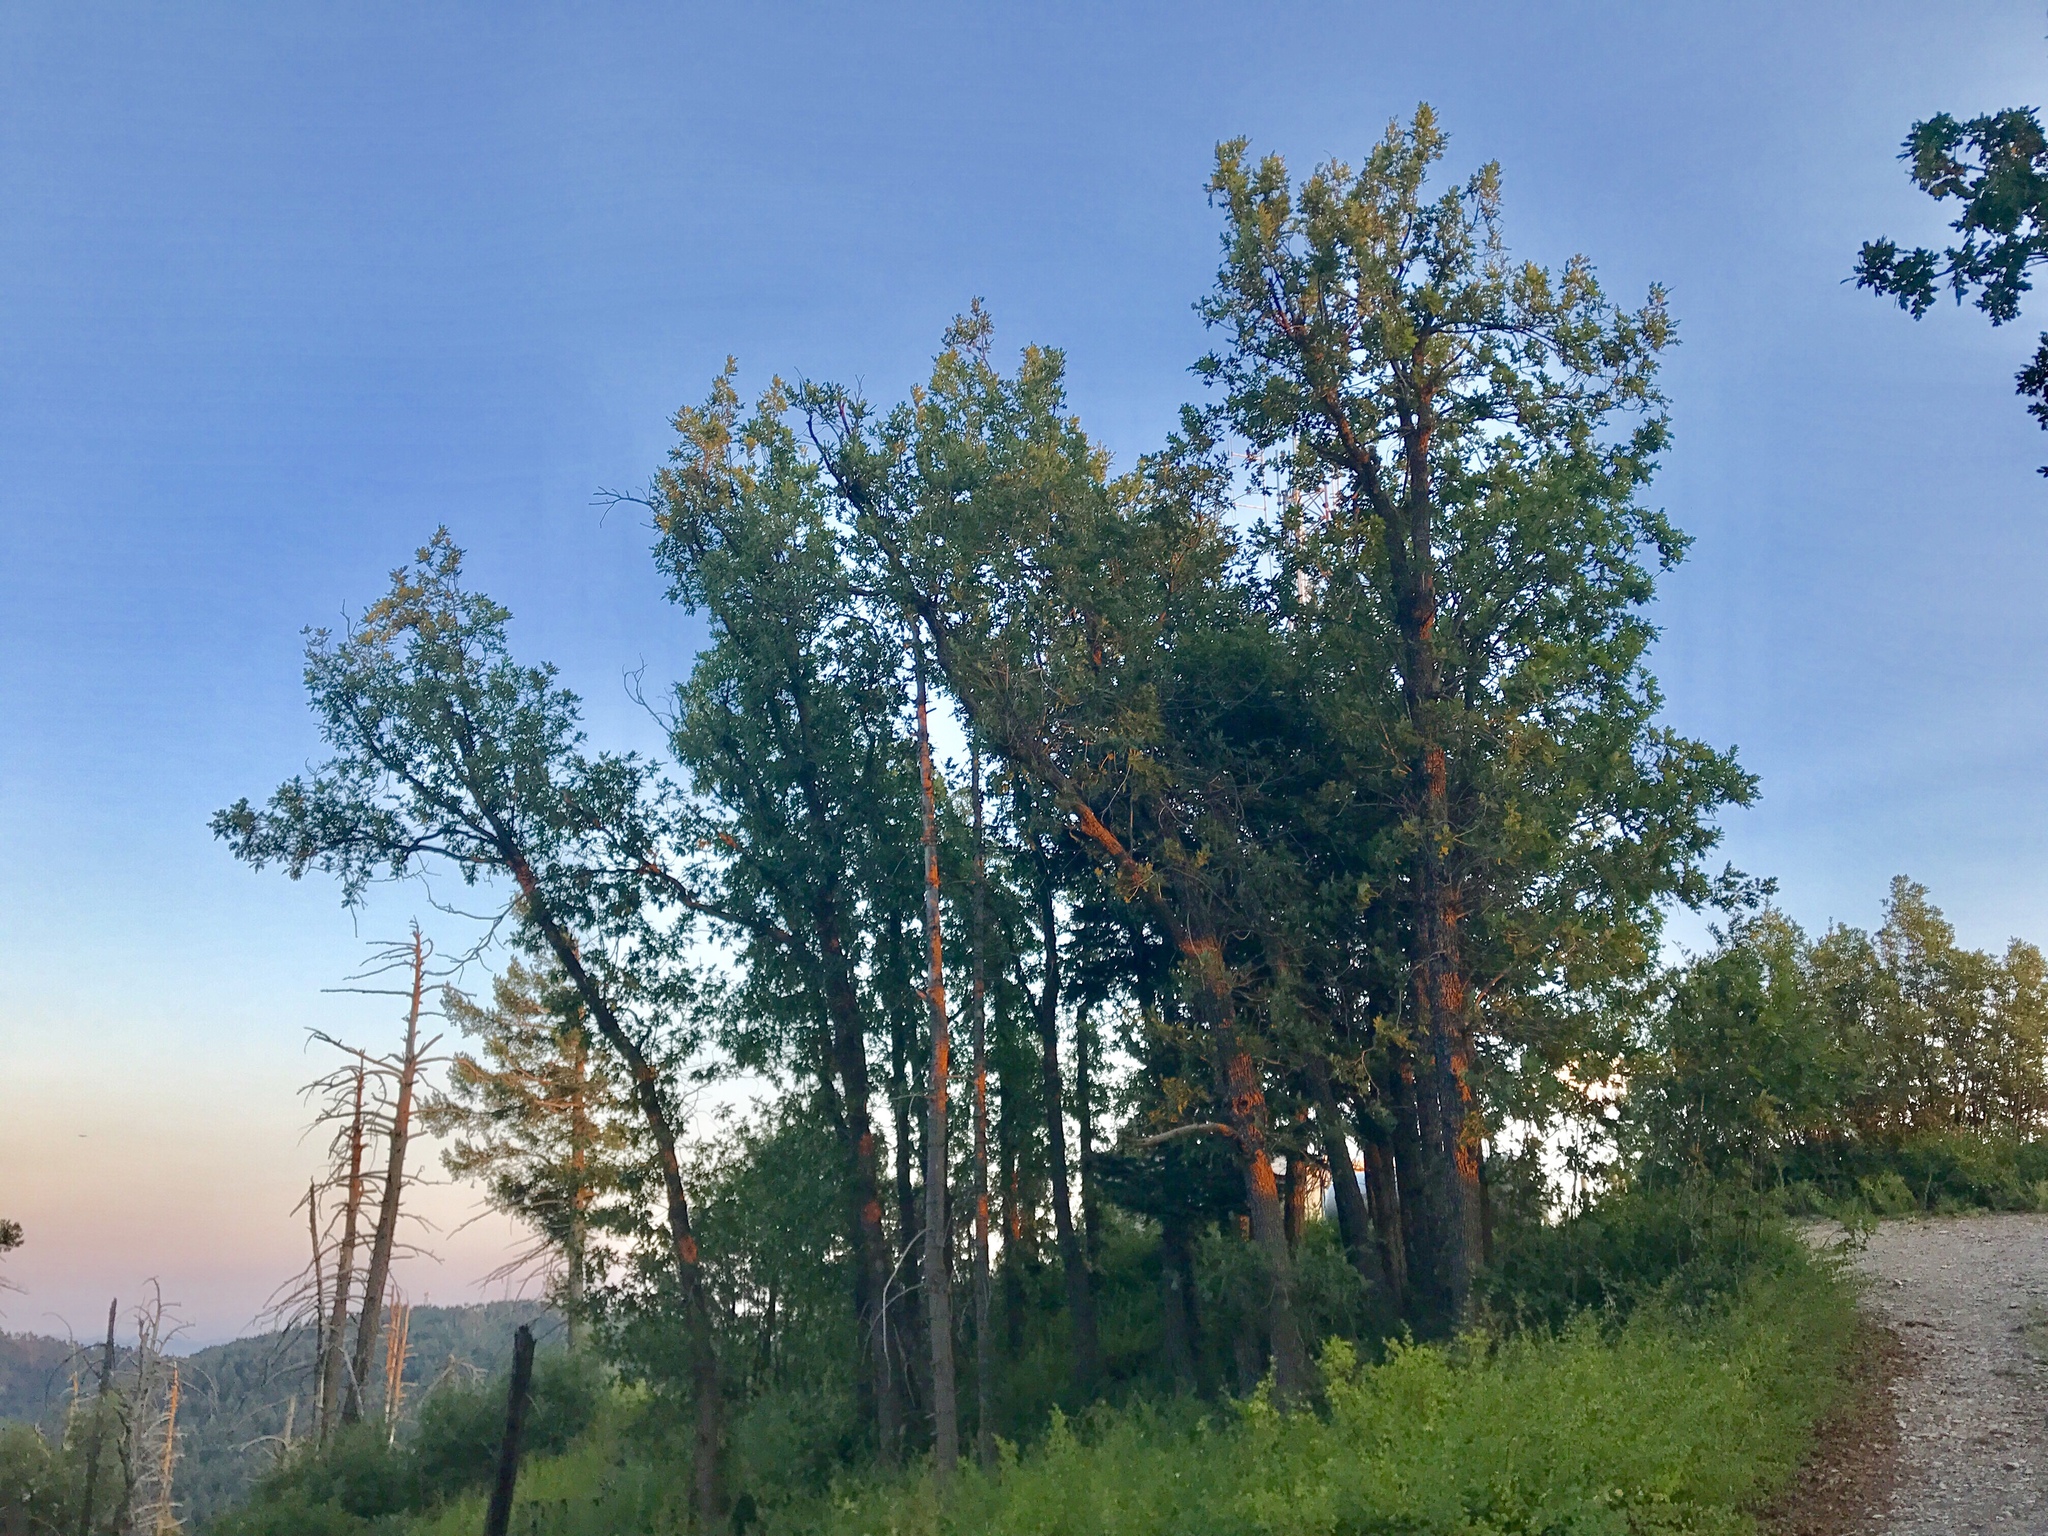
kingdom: Plantae
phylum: Tracheophyta
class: Magnoliopsida
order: Fagales
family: Fagaceae
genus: Quercus
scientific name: Quercus gambelii
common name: Gambel oak
